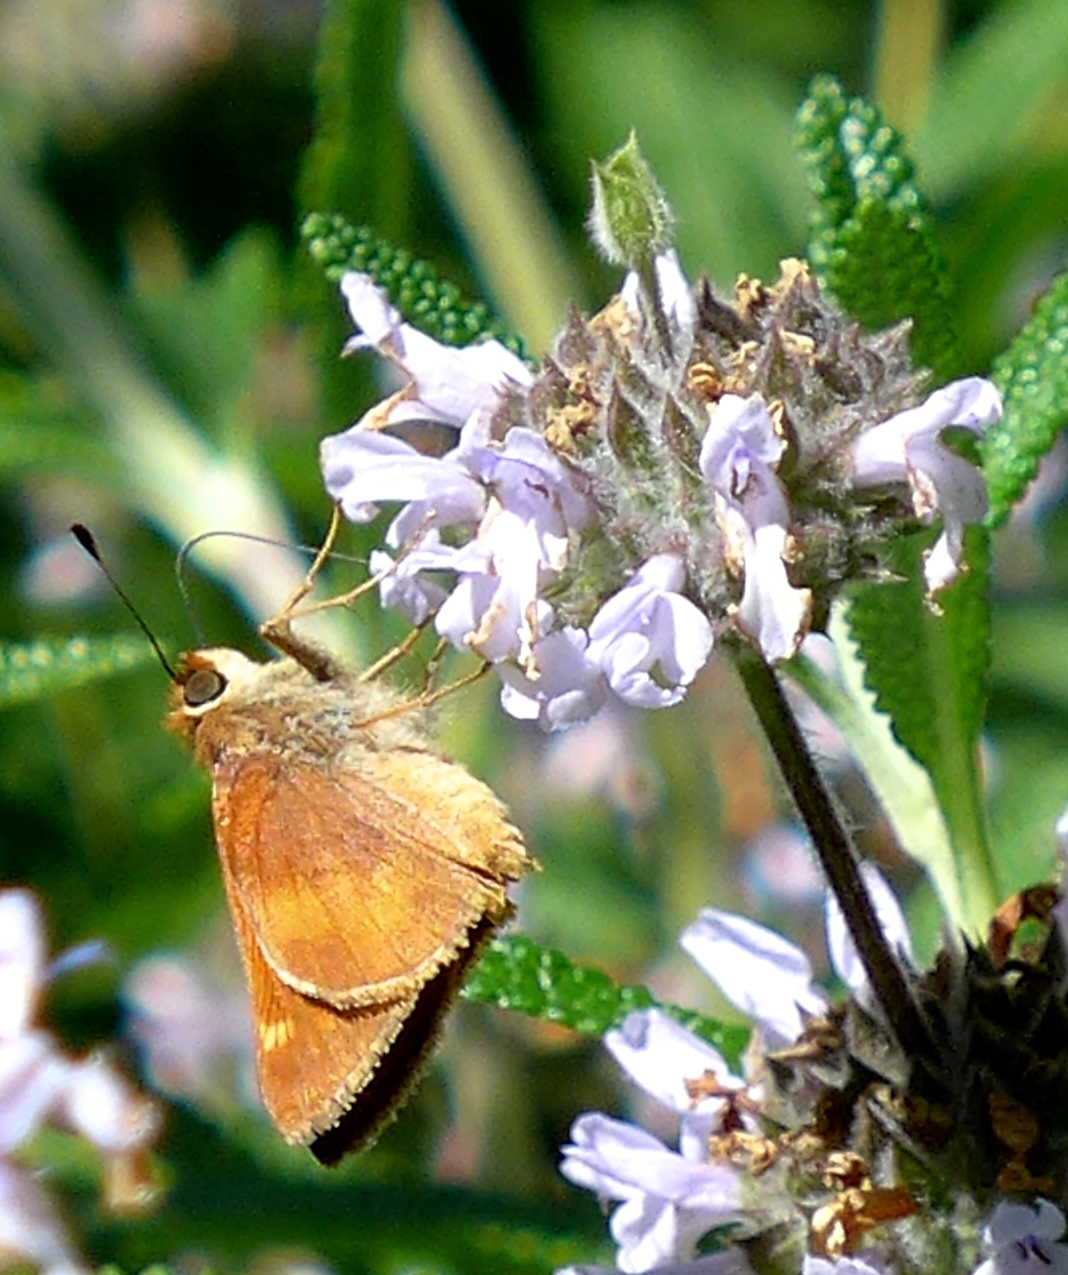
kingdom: Animalia
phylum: Arthropoda
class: Insecta
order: Lepidoptera
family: Hesperiidae
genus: Lon
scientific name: Lon melane
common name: Umber skipper
